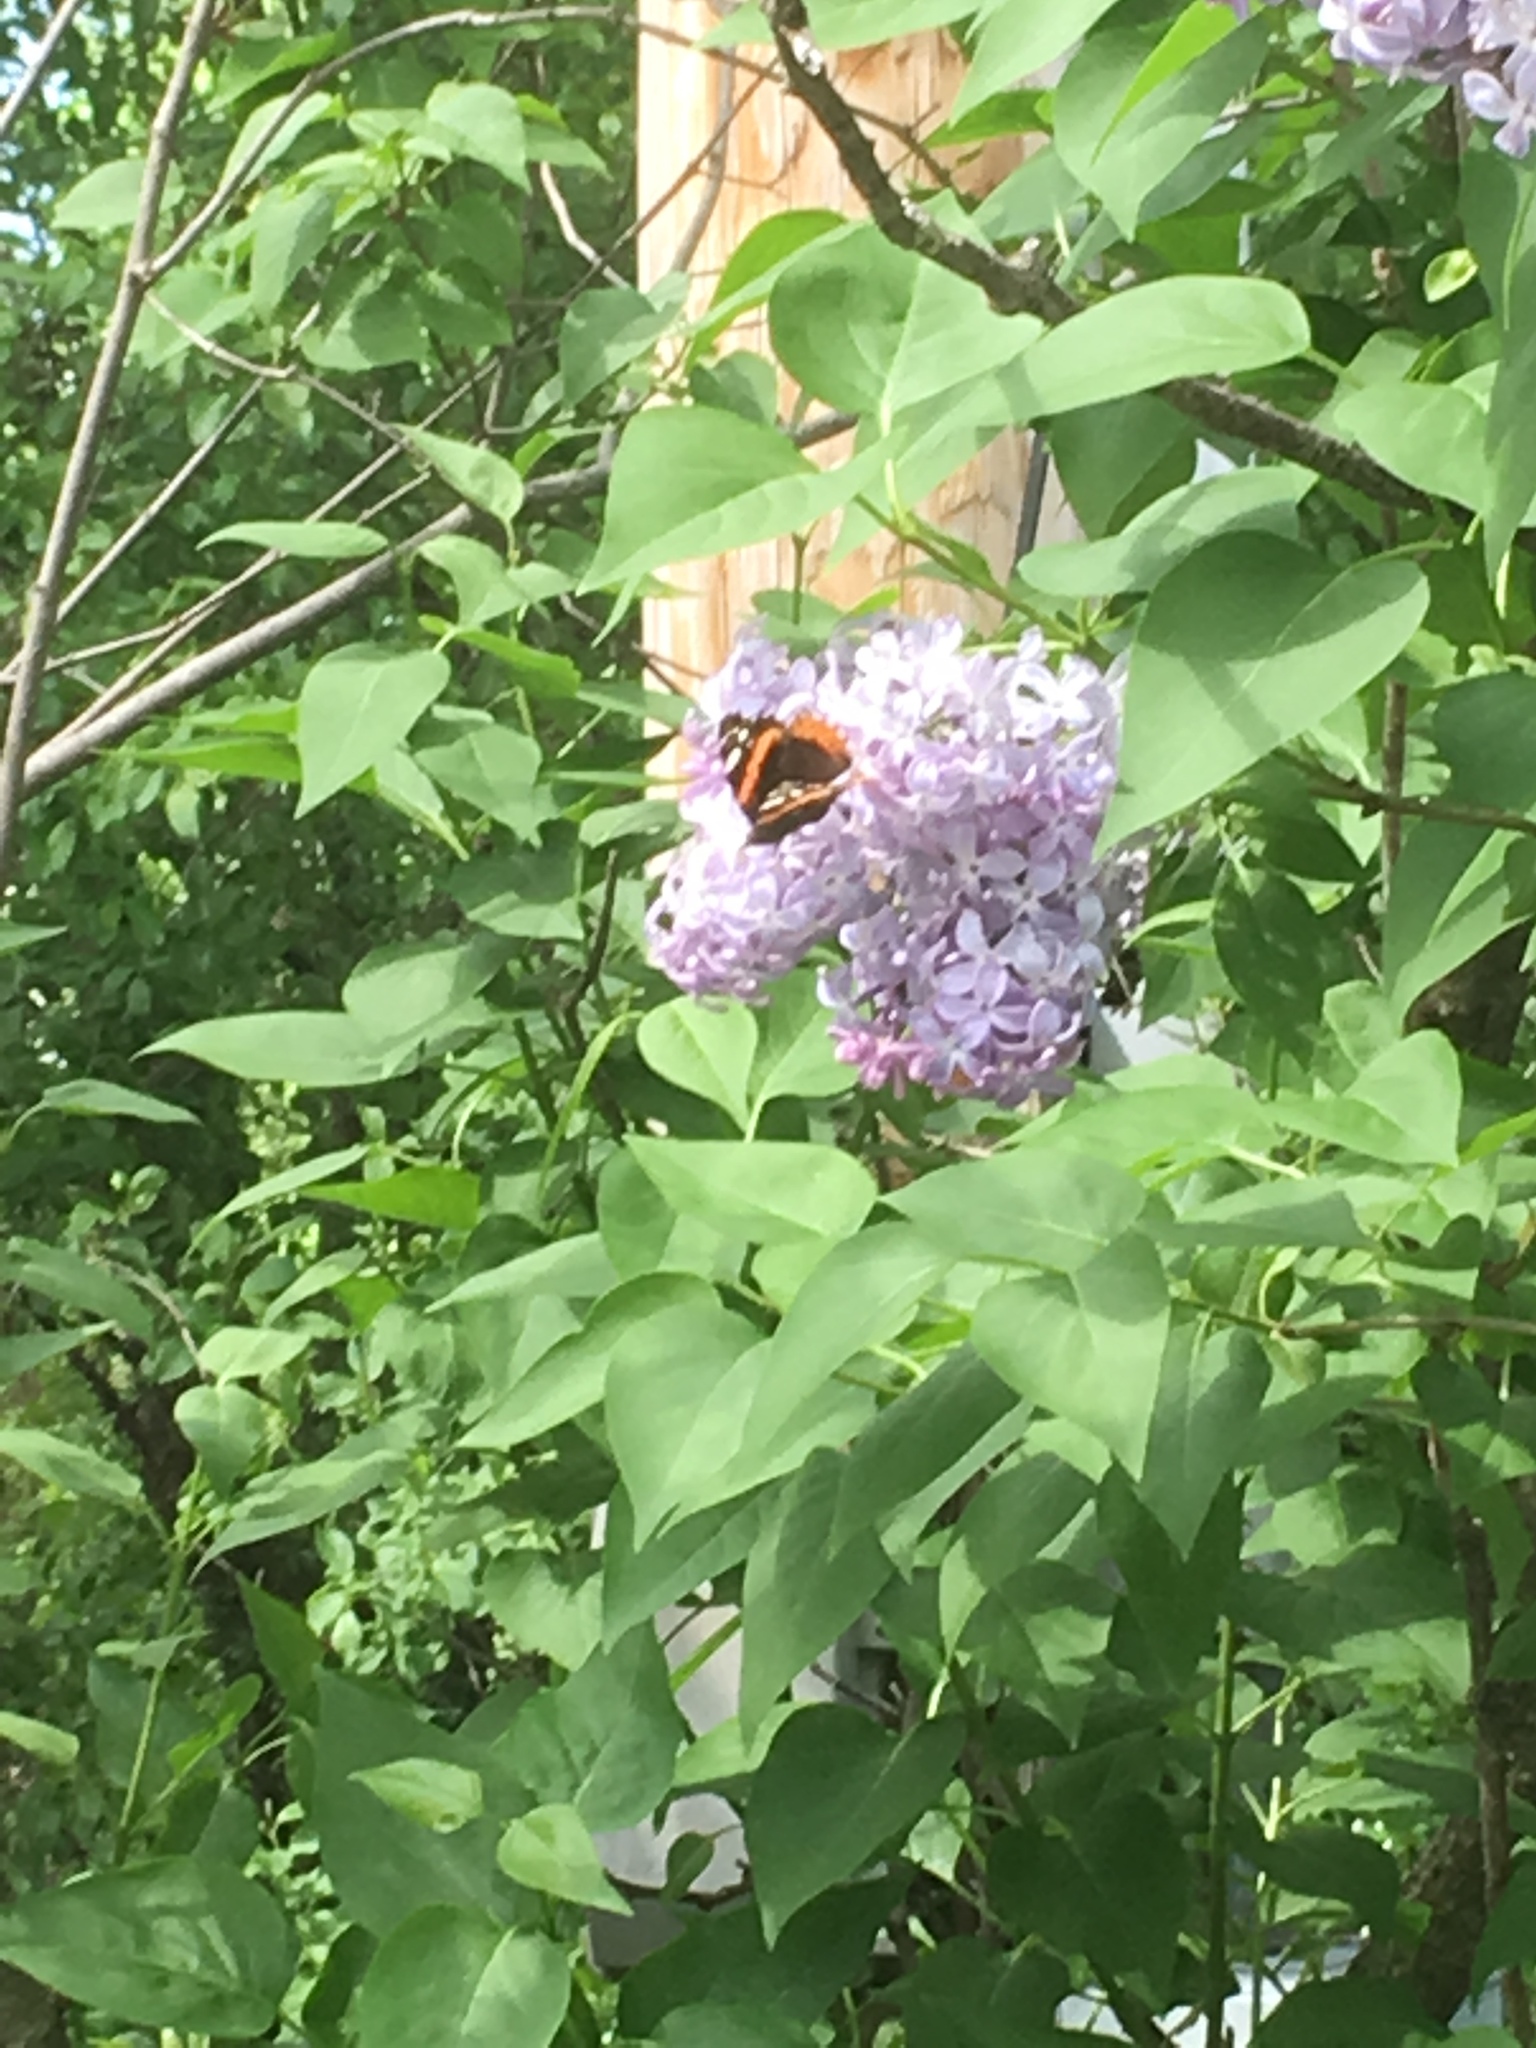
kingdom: Animalia
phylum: Arthropoda
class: Insecta
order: Lepidoptera
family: Nymphalidae
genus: Vanessa
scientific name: Vanessa atalanta
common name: Red admiral
